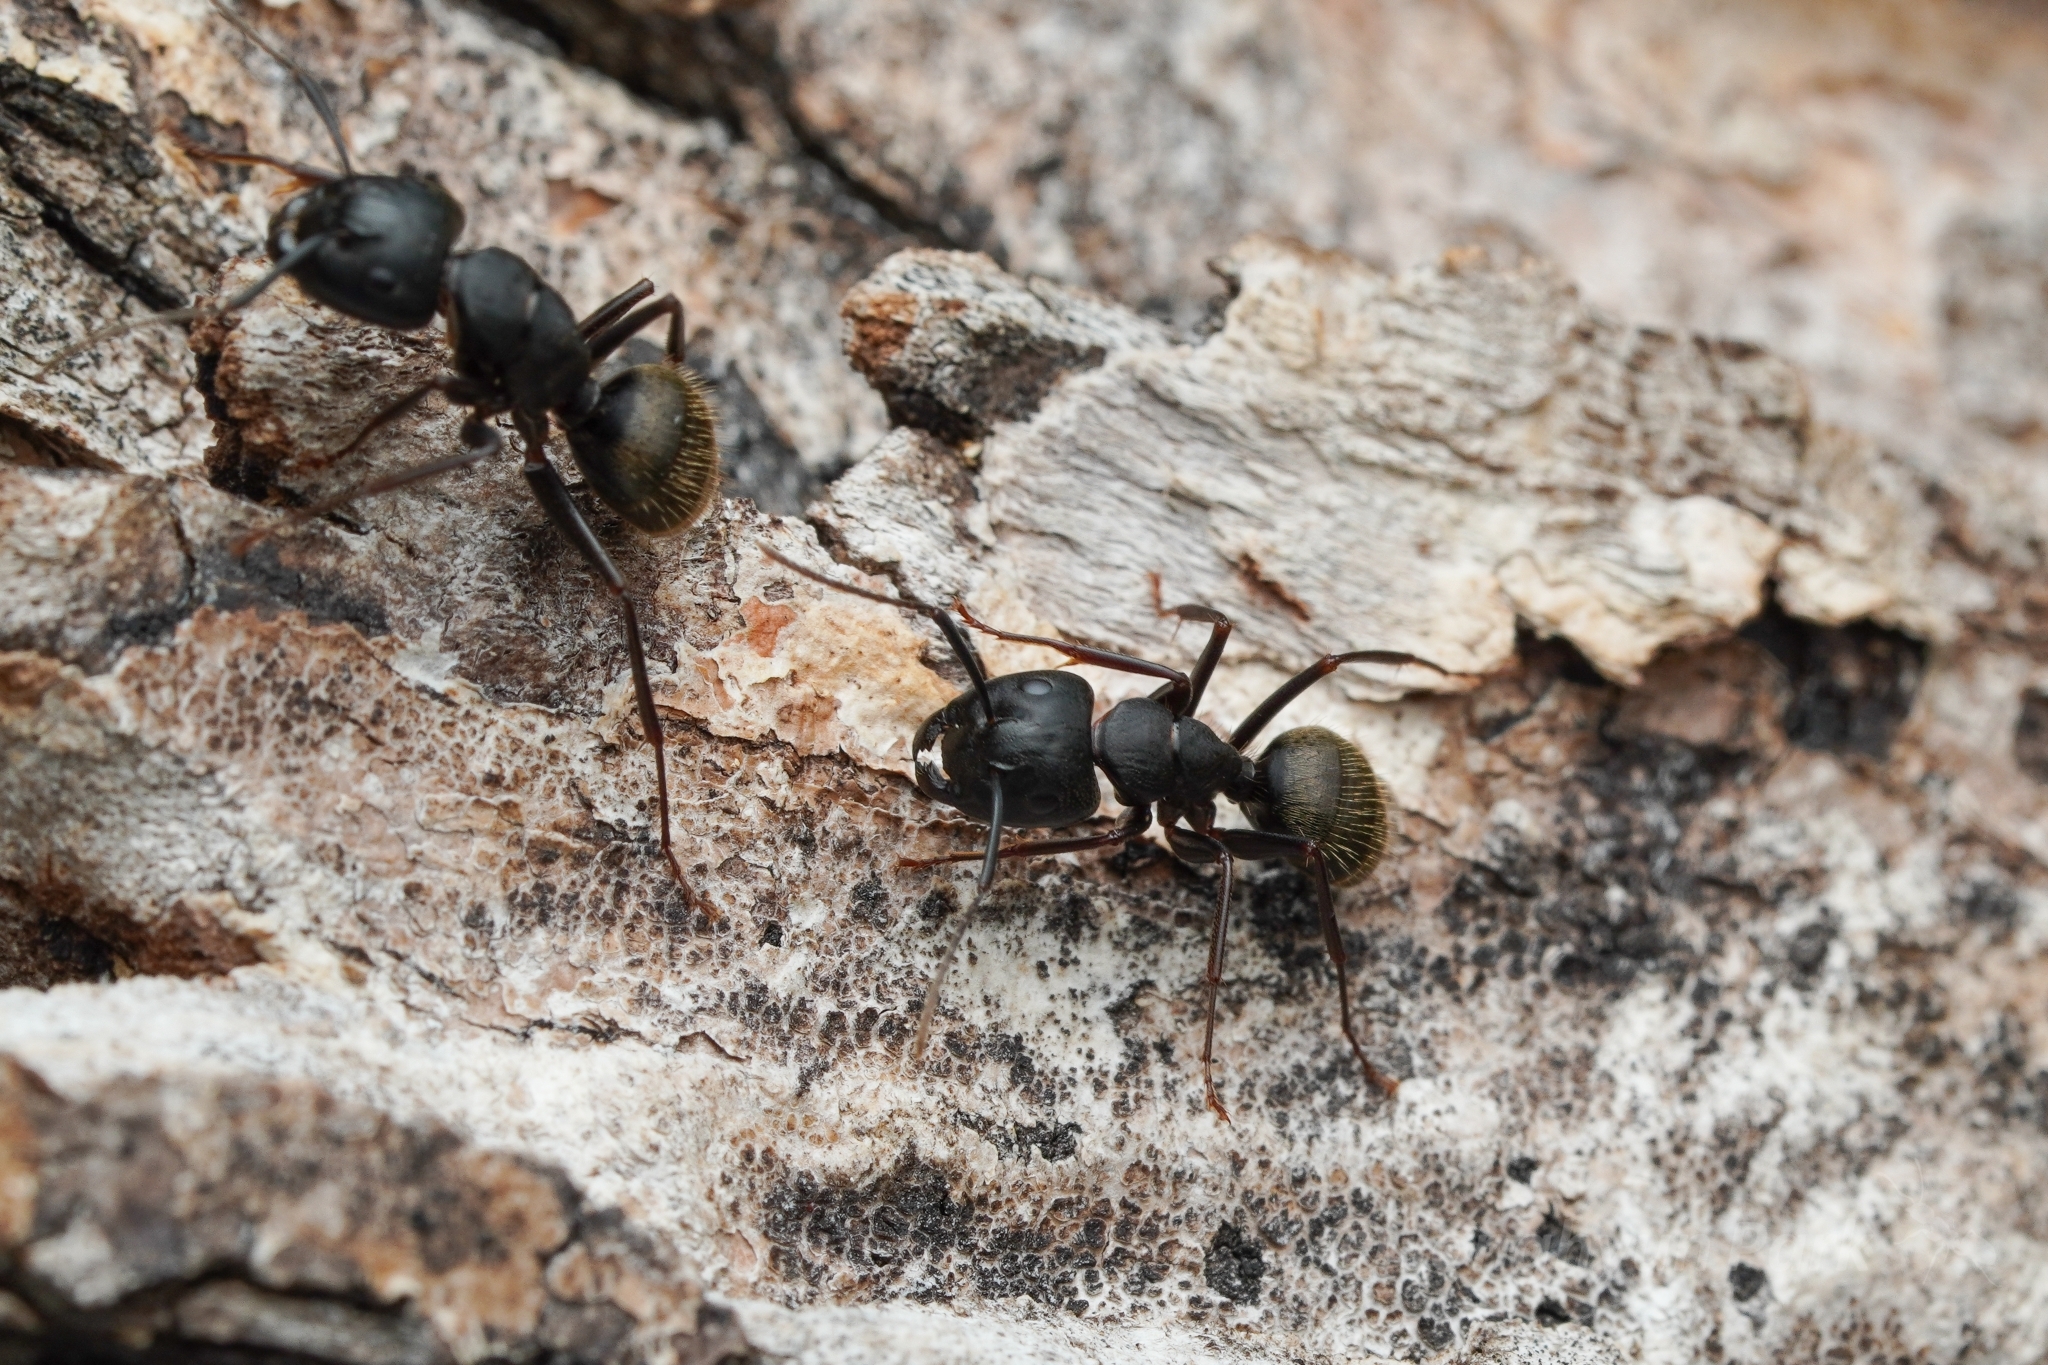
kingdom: Animalia
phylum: Arthropoda
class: Insecta
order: Hymenoptera
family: Formicidae
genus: Camponotus
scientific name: Camponotus pennsylvanicus
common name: Black carpenter ant
